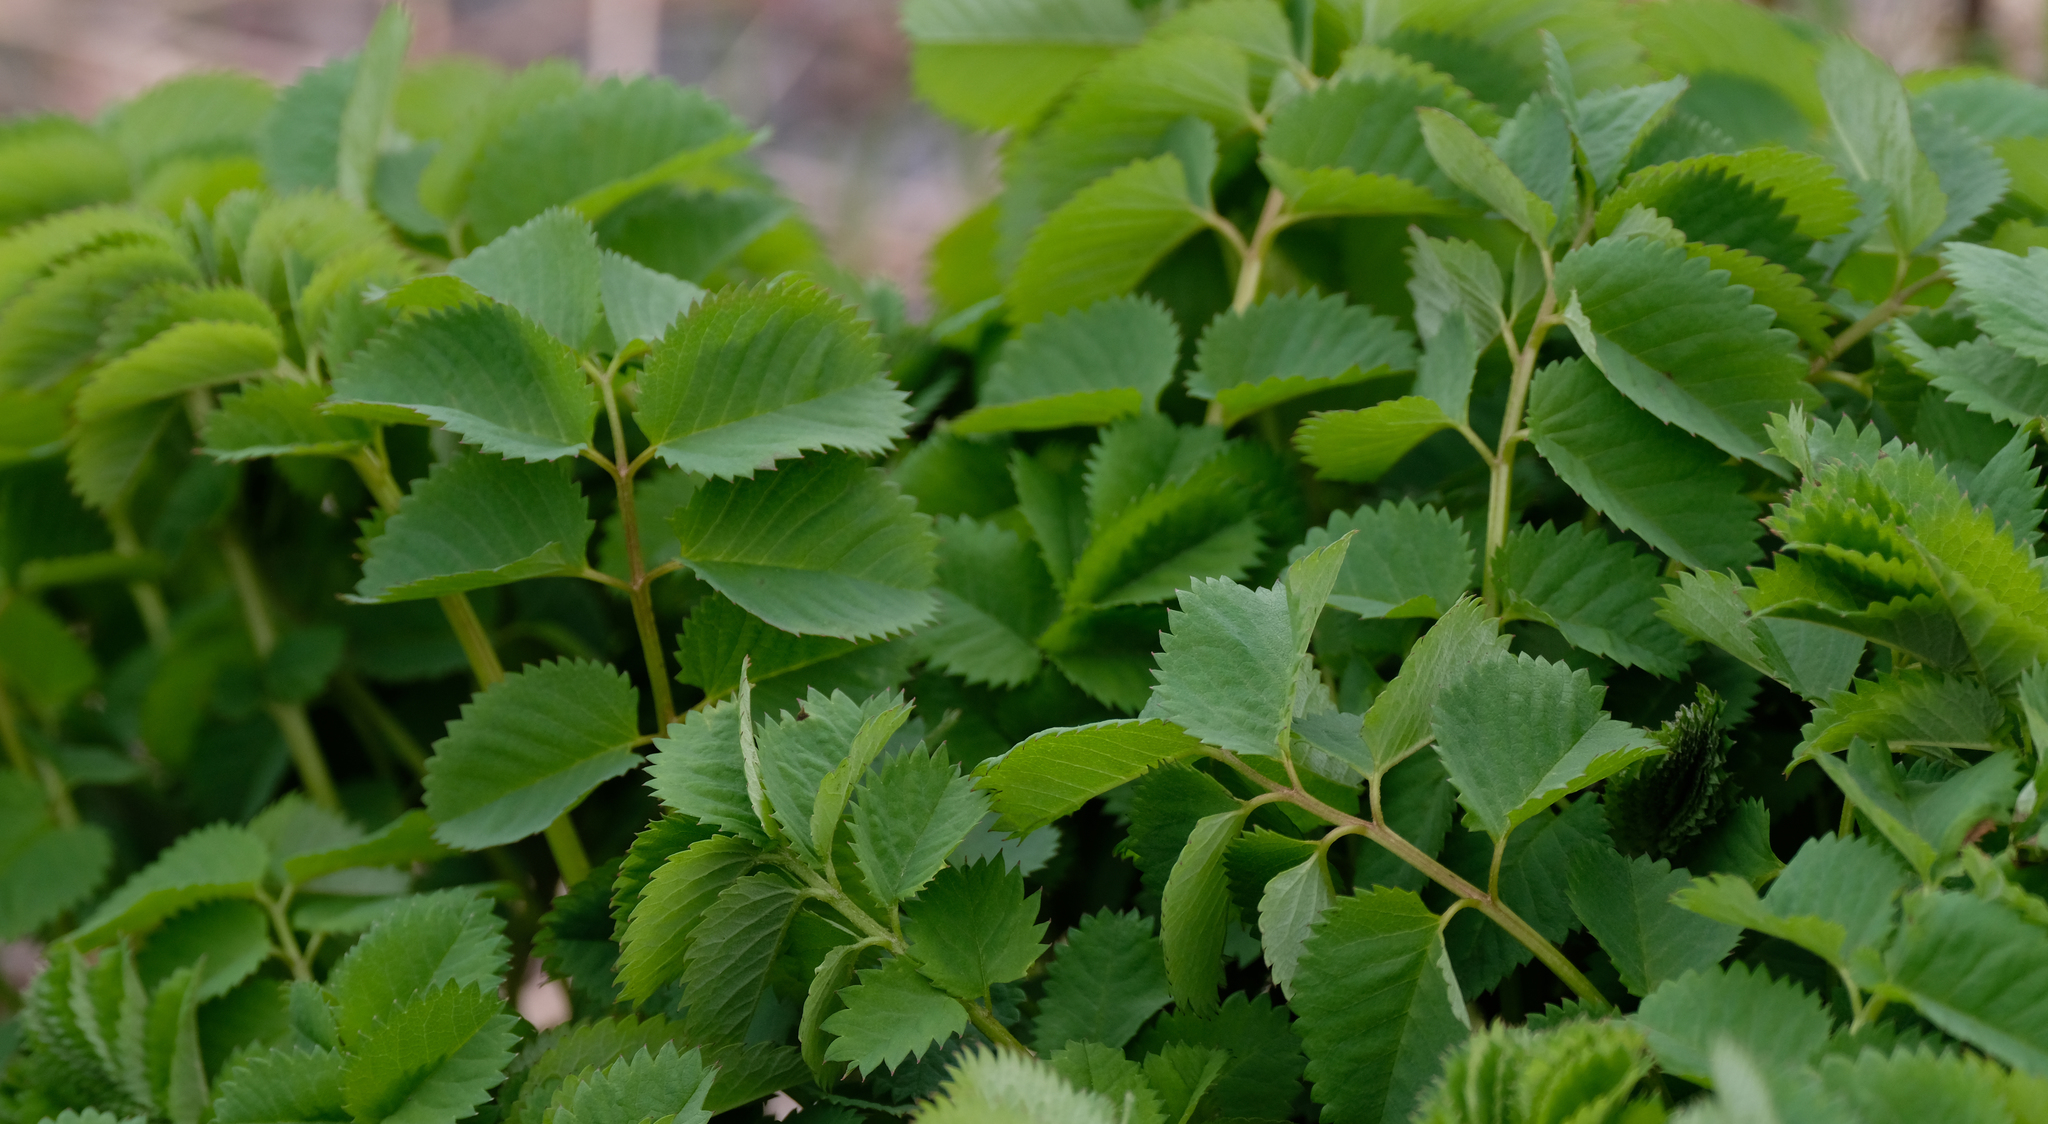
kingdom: Plantae
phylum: Tracheophyta
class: Magnoliopsida
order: Rosales
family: Rosaceae
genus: Sanguisorba
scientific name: Sanguisorba stipulata
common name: Sitka burnet
